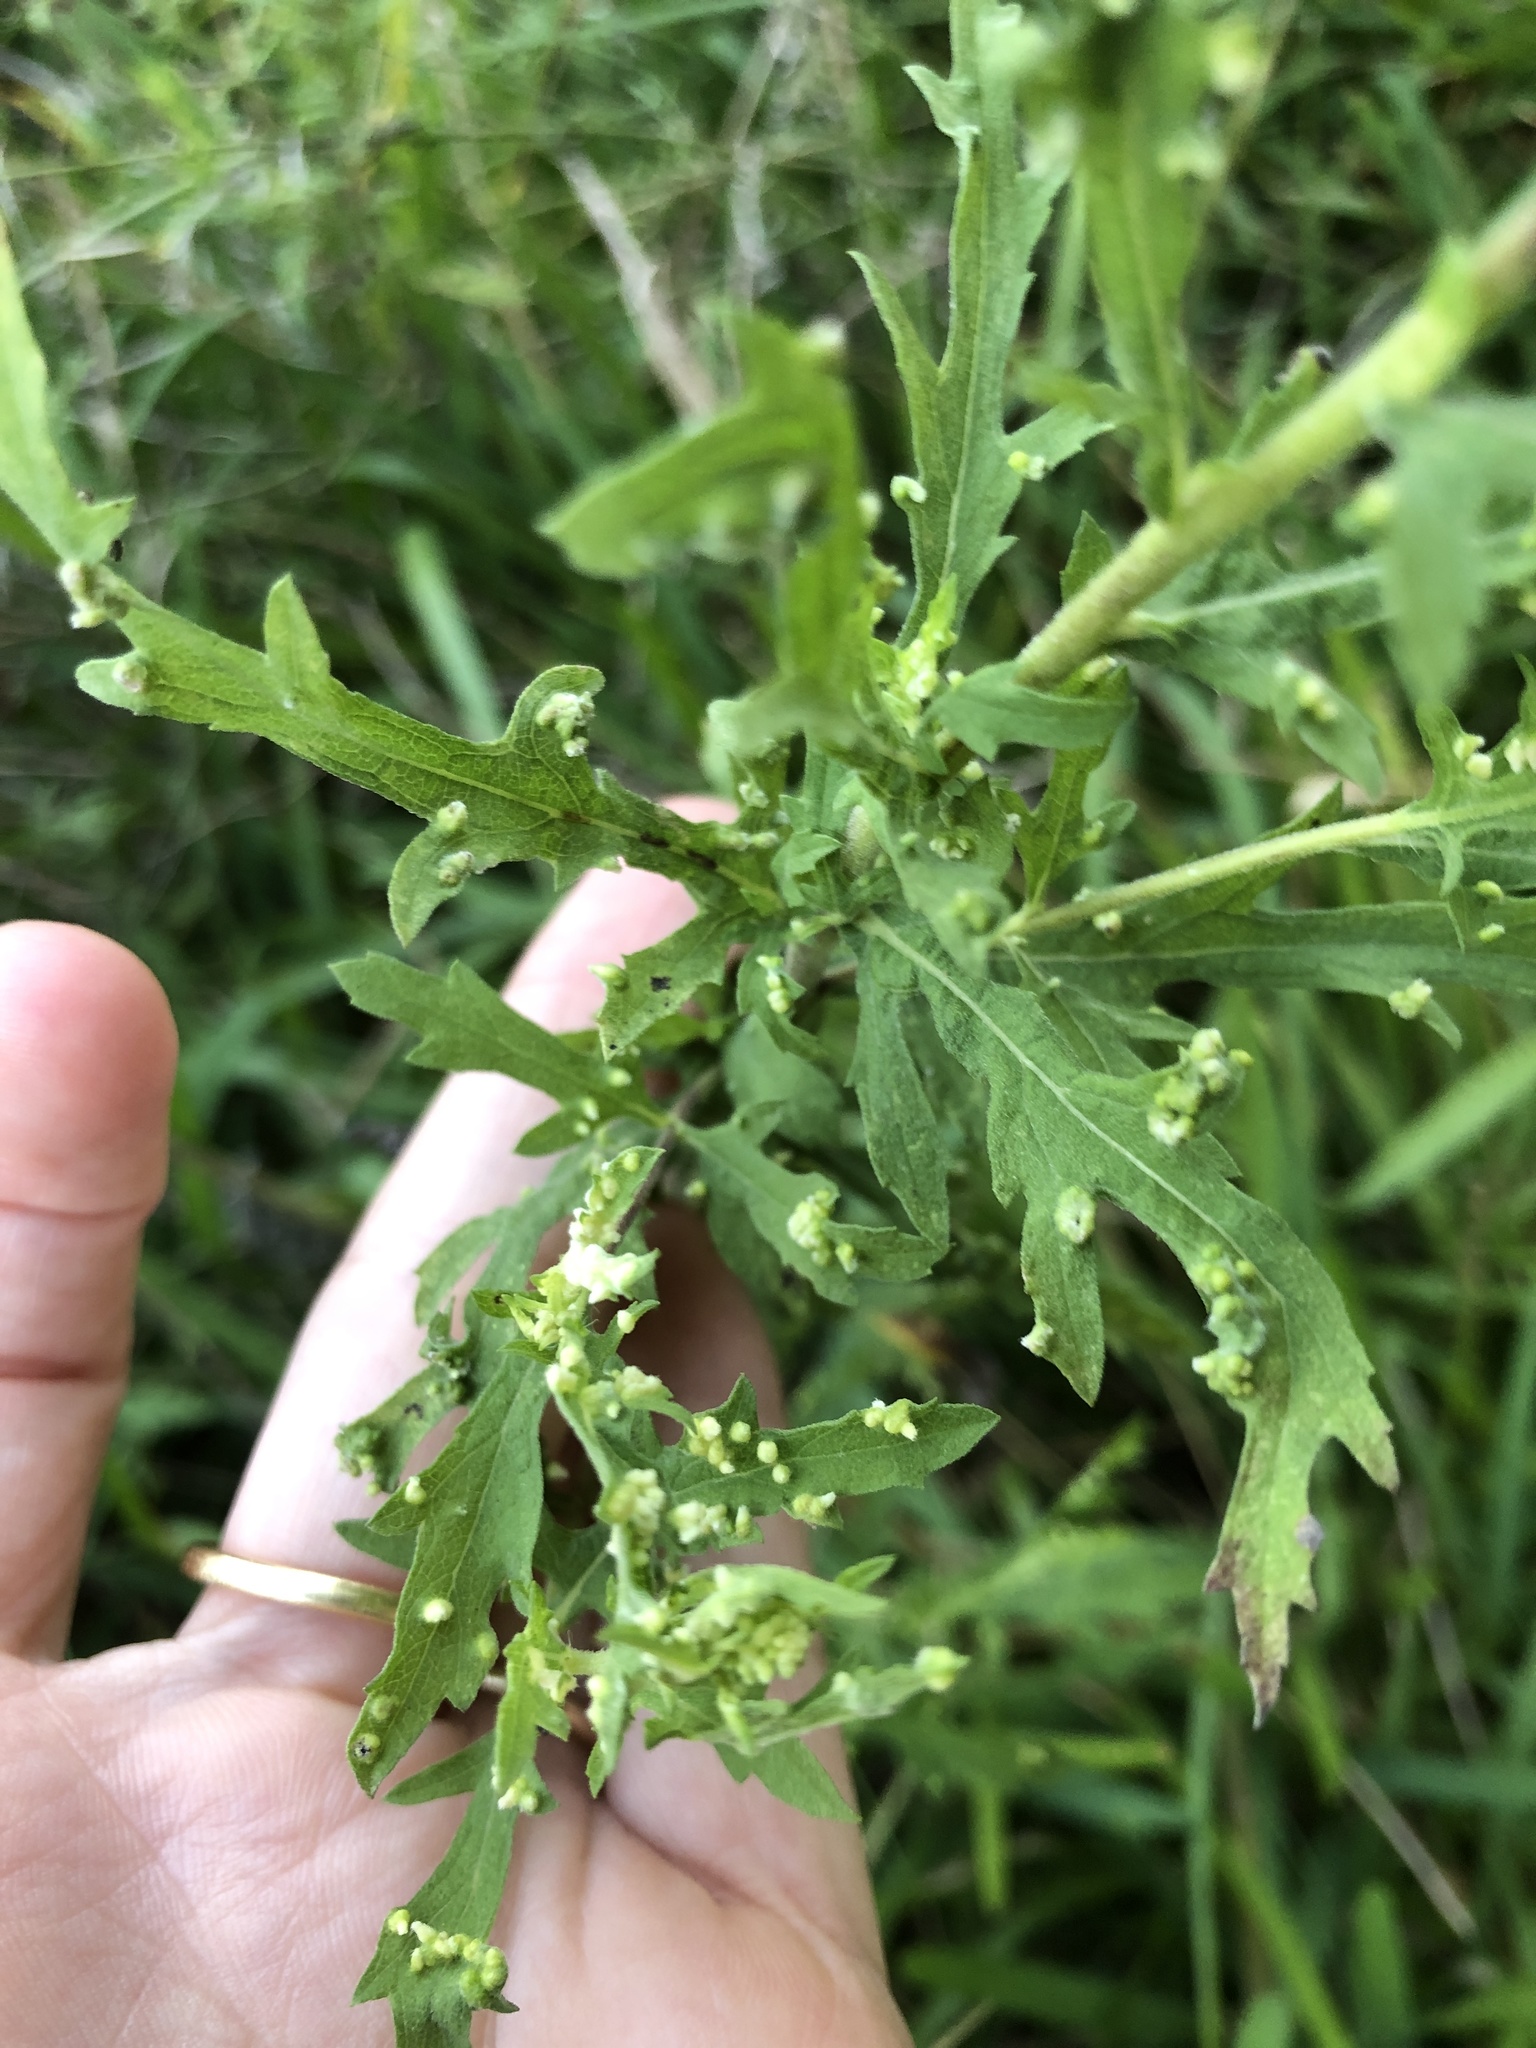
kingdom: Plantae
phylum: Tracheophyta
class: Magnoliopsida
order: Asterales
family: Asteraceae
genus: Ambrosia
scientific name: Ambrosia psilostachya
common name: Perennial ragweed
